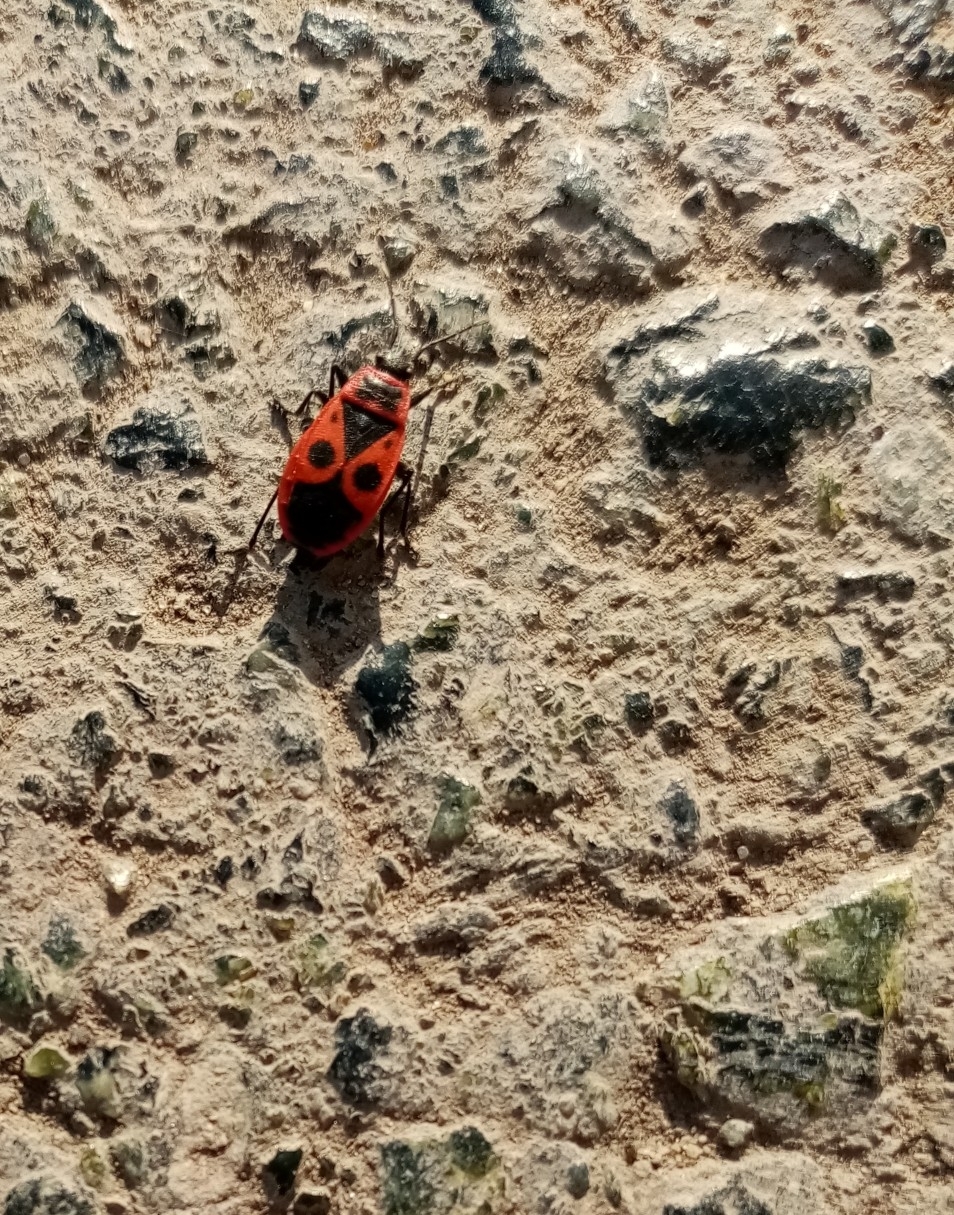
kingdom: Animalia
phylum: Arthropoda
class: Insecta
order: Hemiptera
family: Pyrrhocoridae
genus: Pyrrhocoris
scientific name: Pyrrhocoris apterus
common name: Firebug
